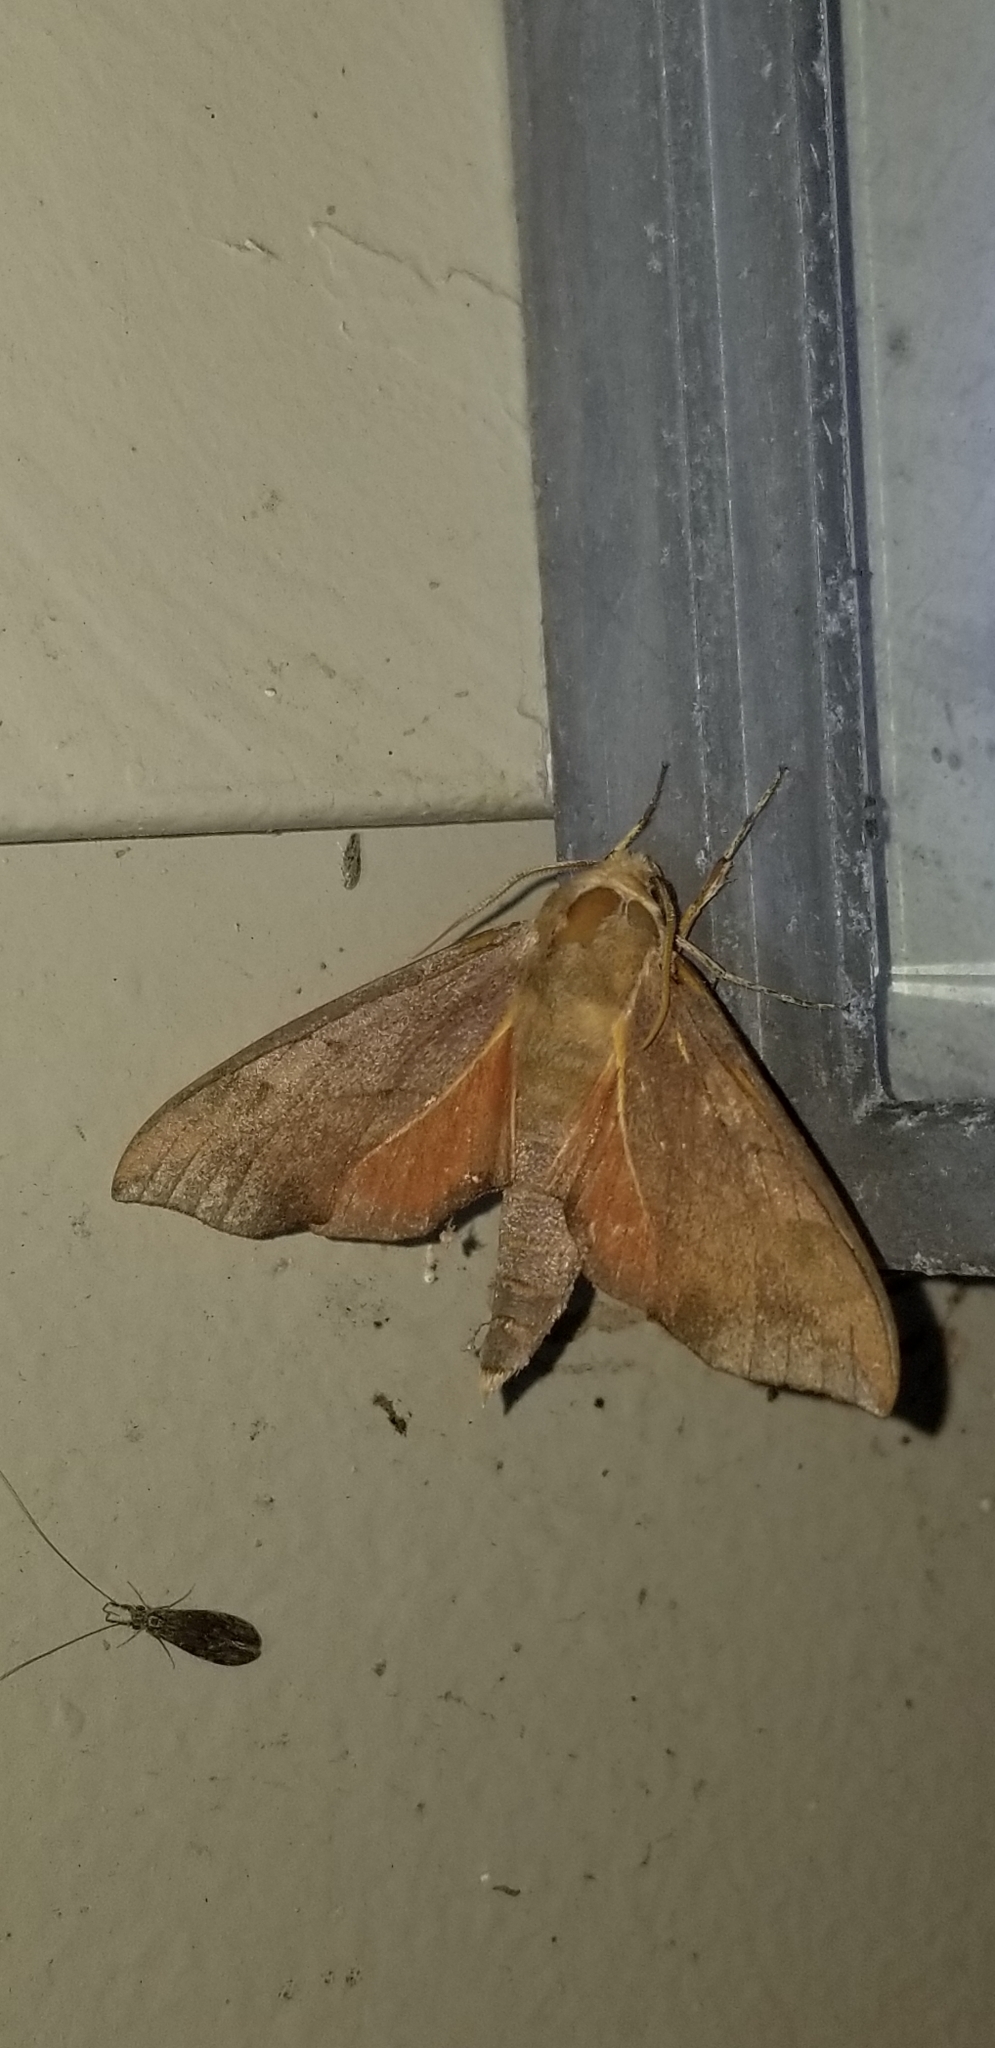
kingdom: Animalia
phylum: Arthropoda
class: Insecta
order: Lepidoptera
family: Sphingidae
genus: Darapsa
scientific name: Darapsa myron
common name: Hog sphinx
